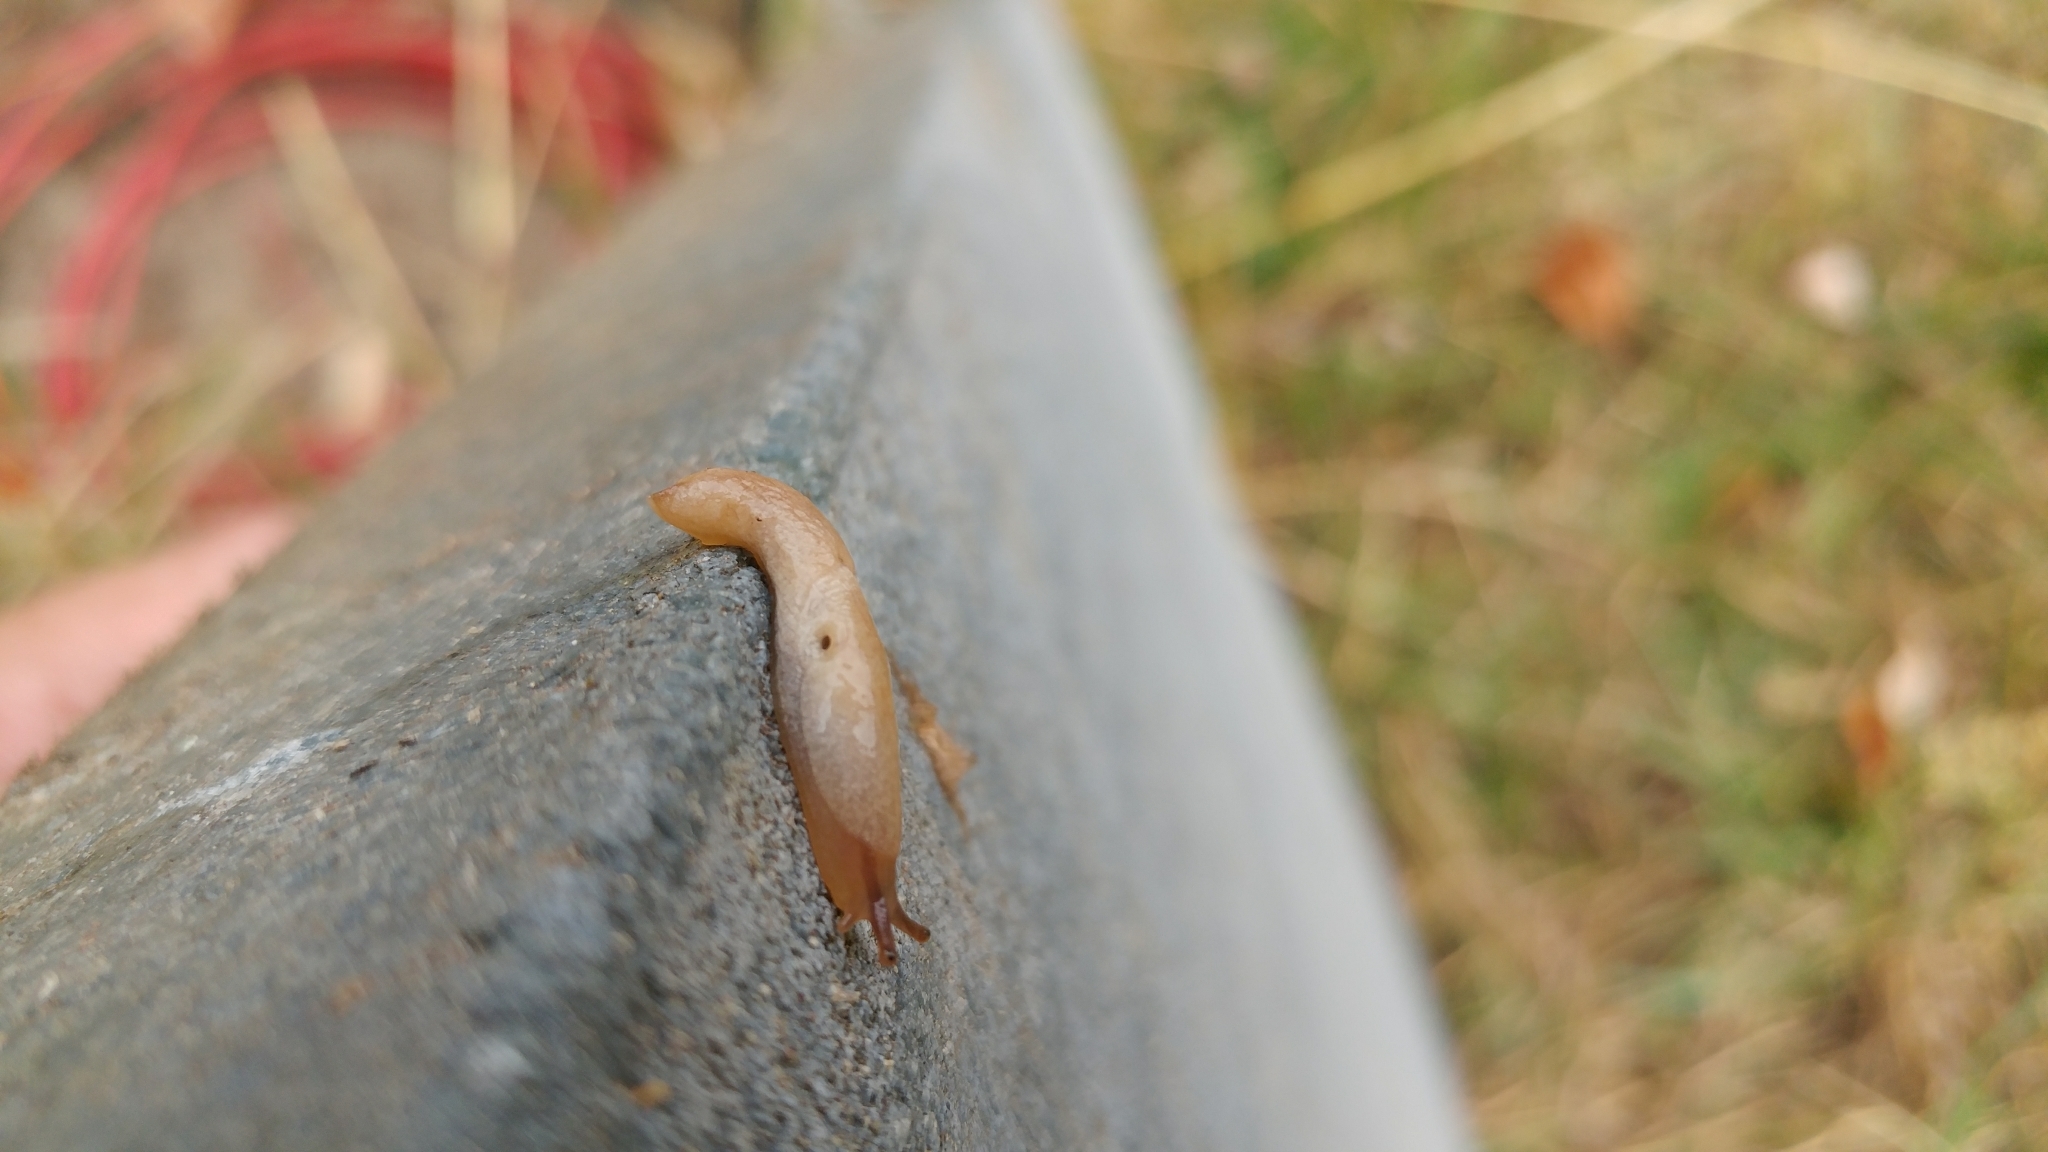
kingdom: Animalia
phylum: Mollusca
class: Gastropoda
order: Stylommatophora
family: Agriolimacidae
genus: Deroceras
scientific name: Deroceras reticulatum
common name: Gray field slug
